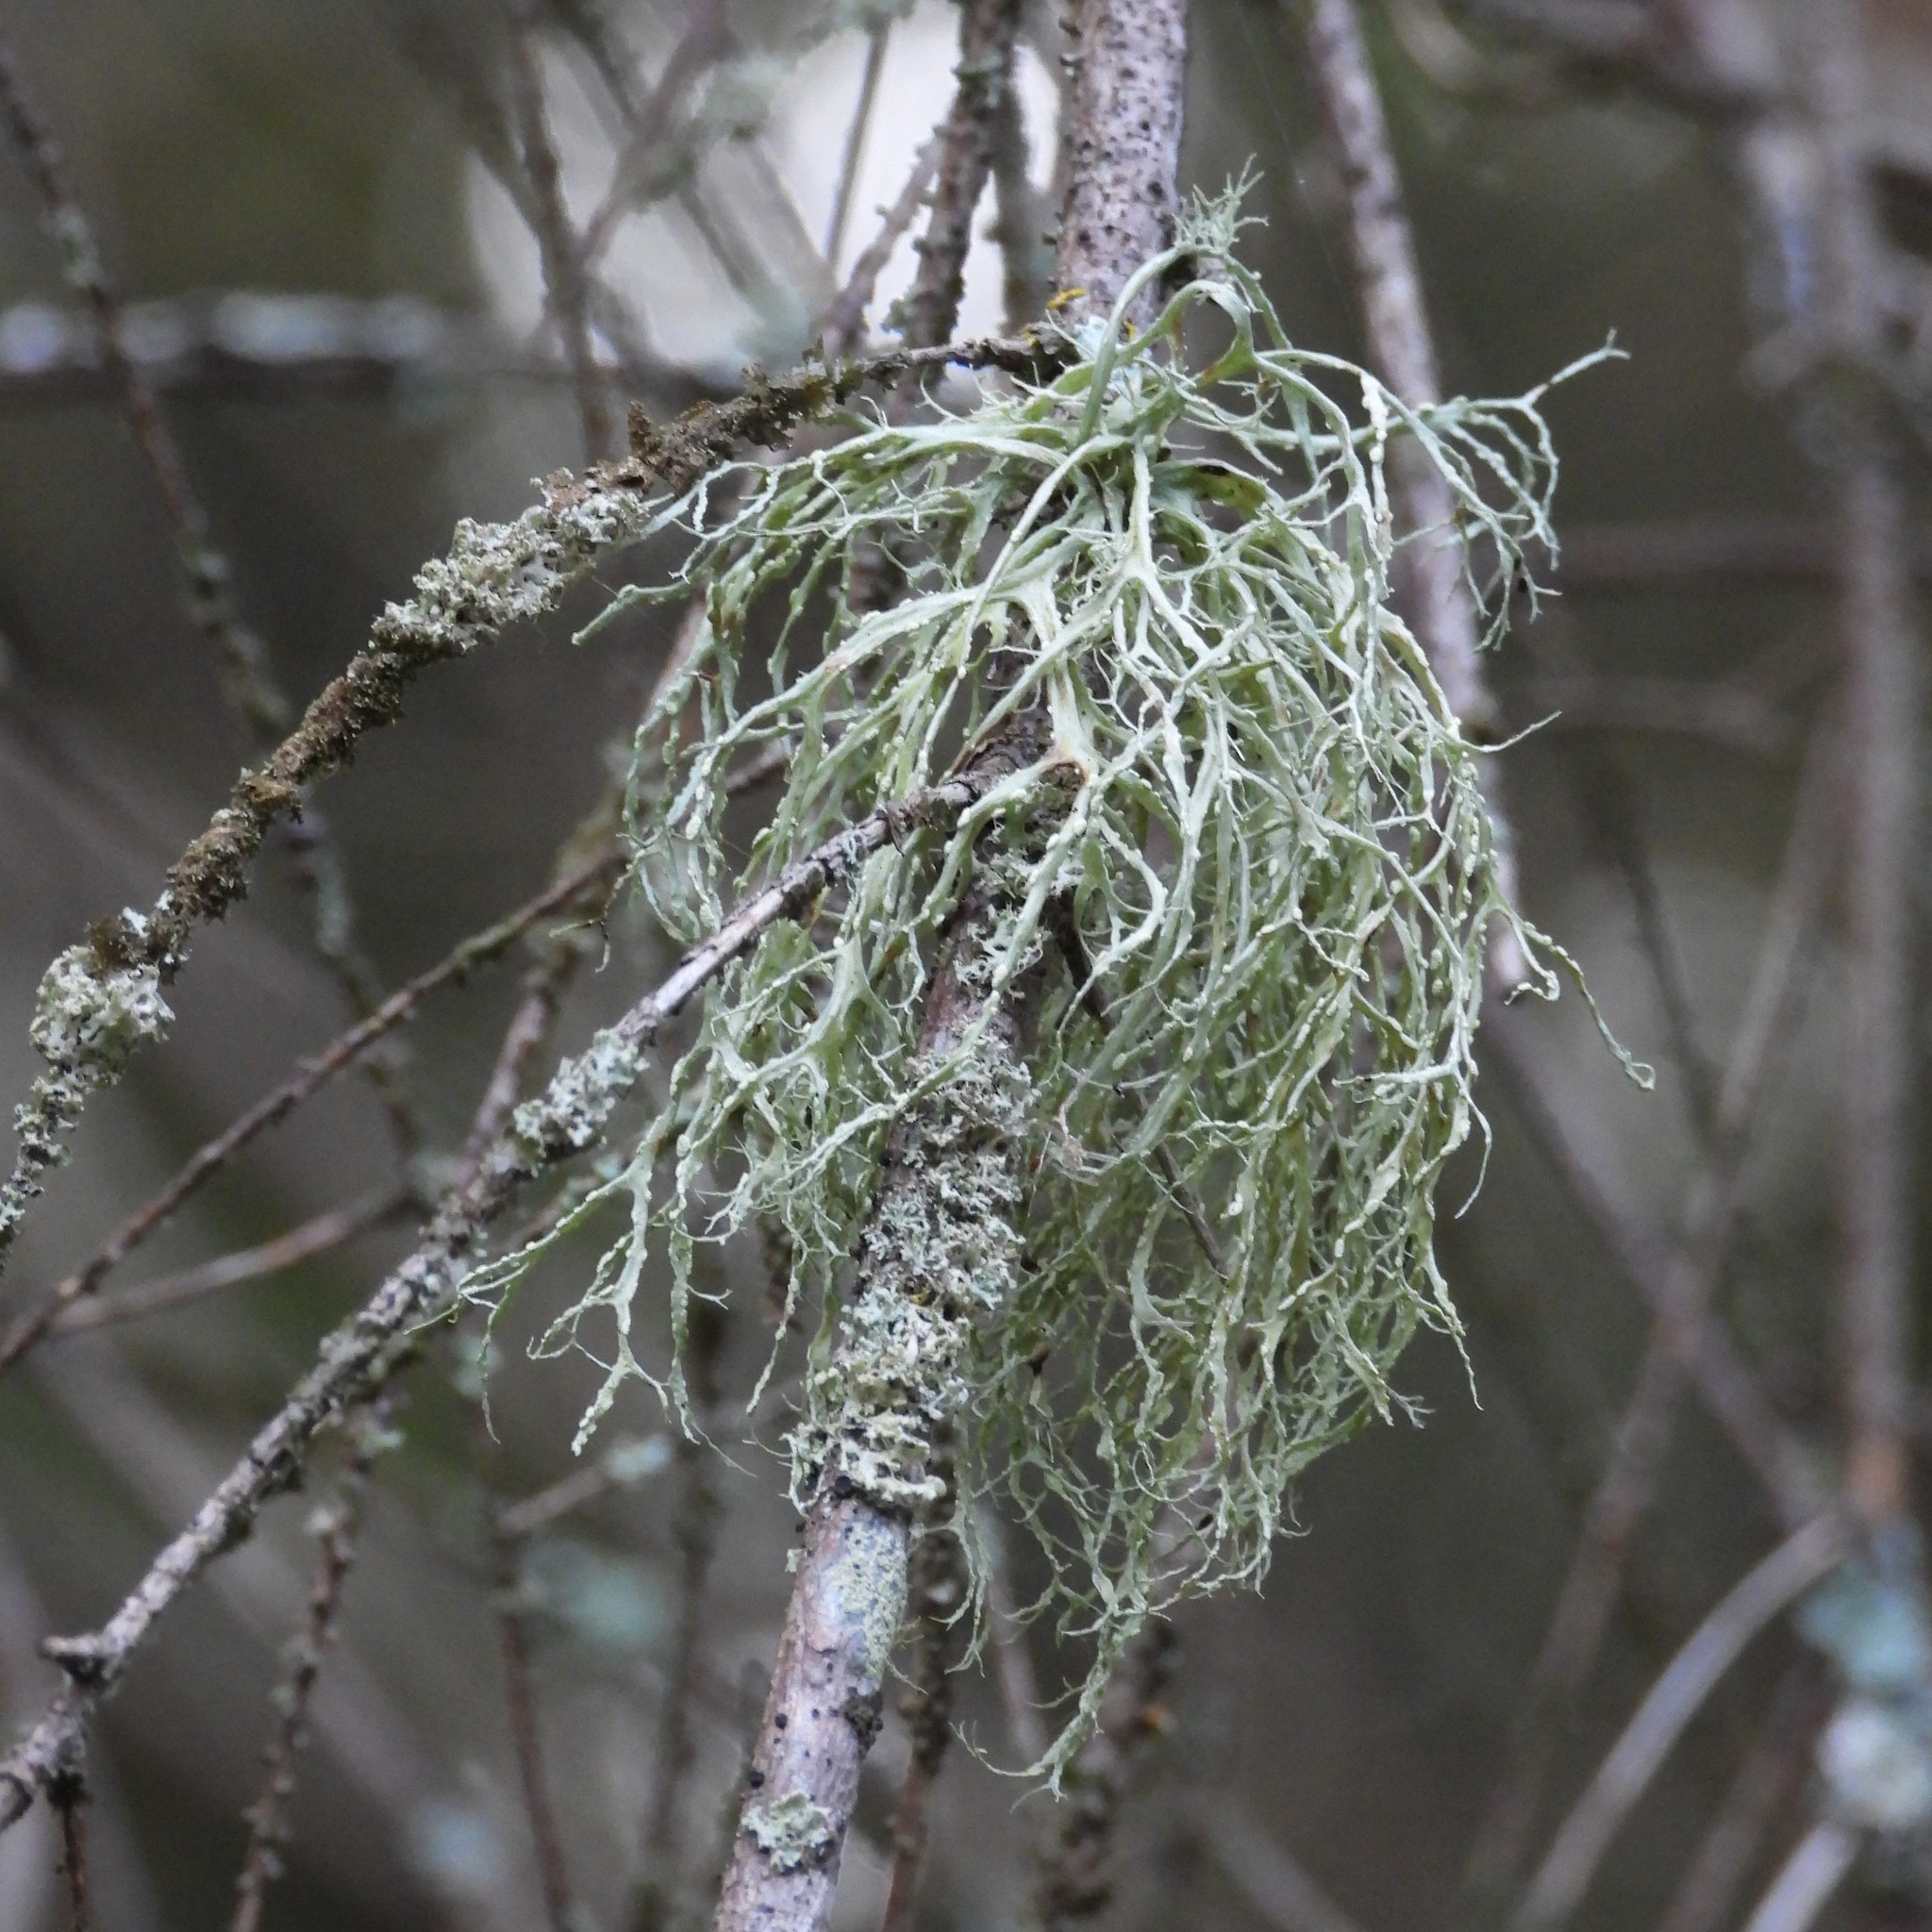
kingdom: Fungi
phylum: Ascomycota
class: Lecanoromycetes
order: Lecanorales
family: Ramalinaceae
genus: Ramalina
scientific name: Ramalina farinacea
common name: Farinose cartilage lichen
